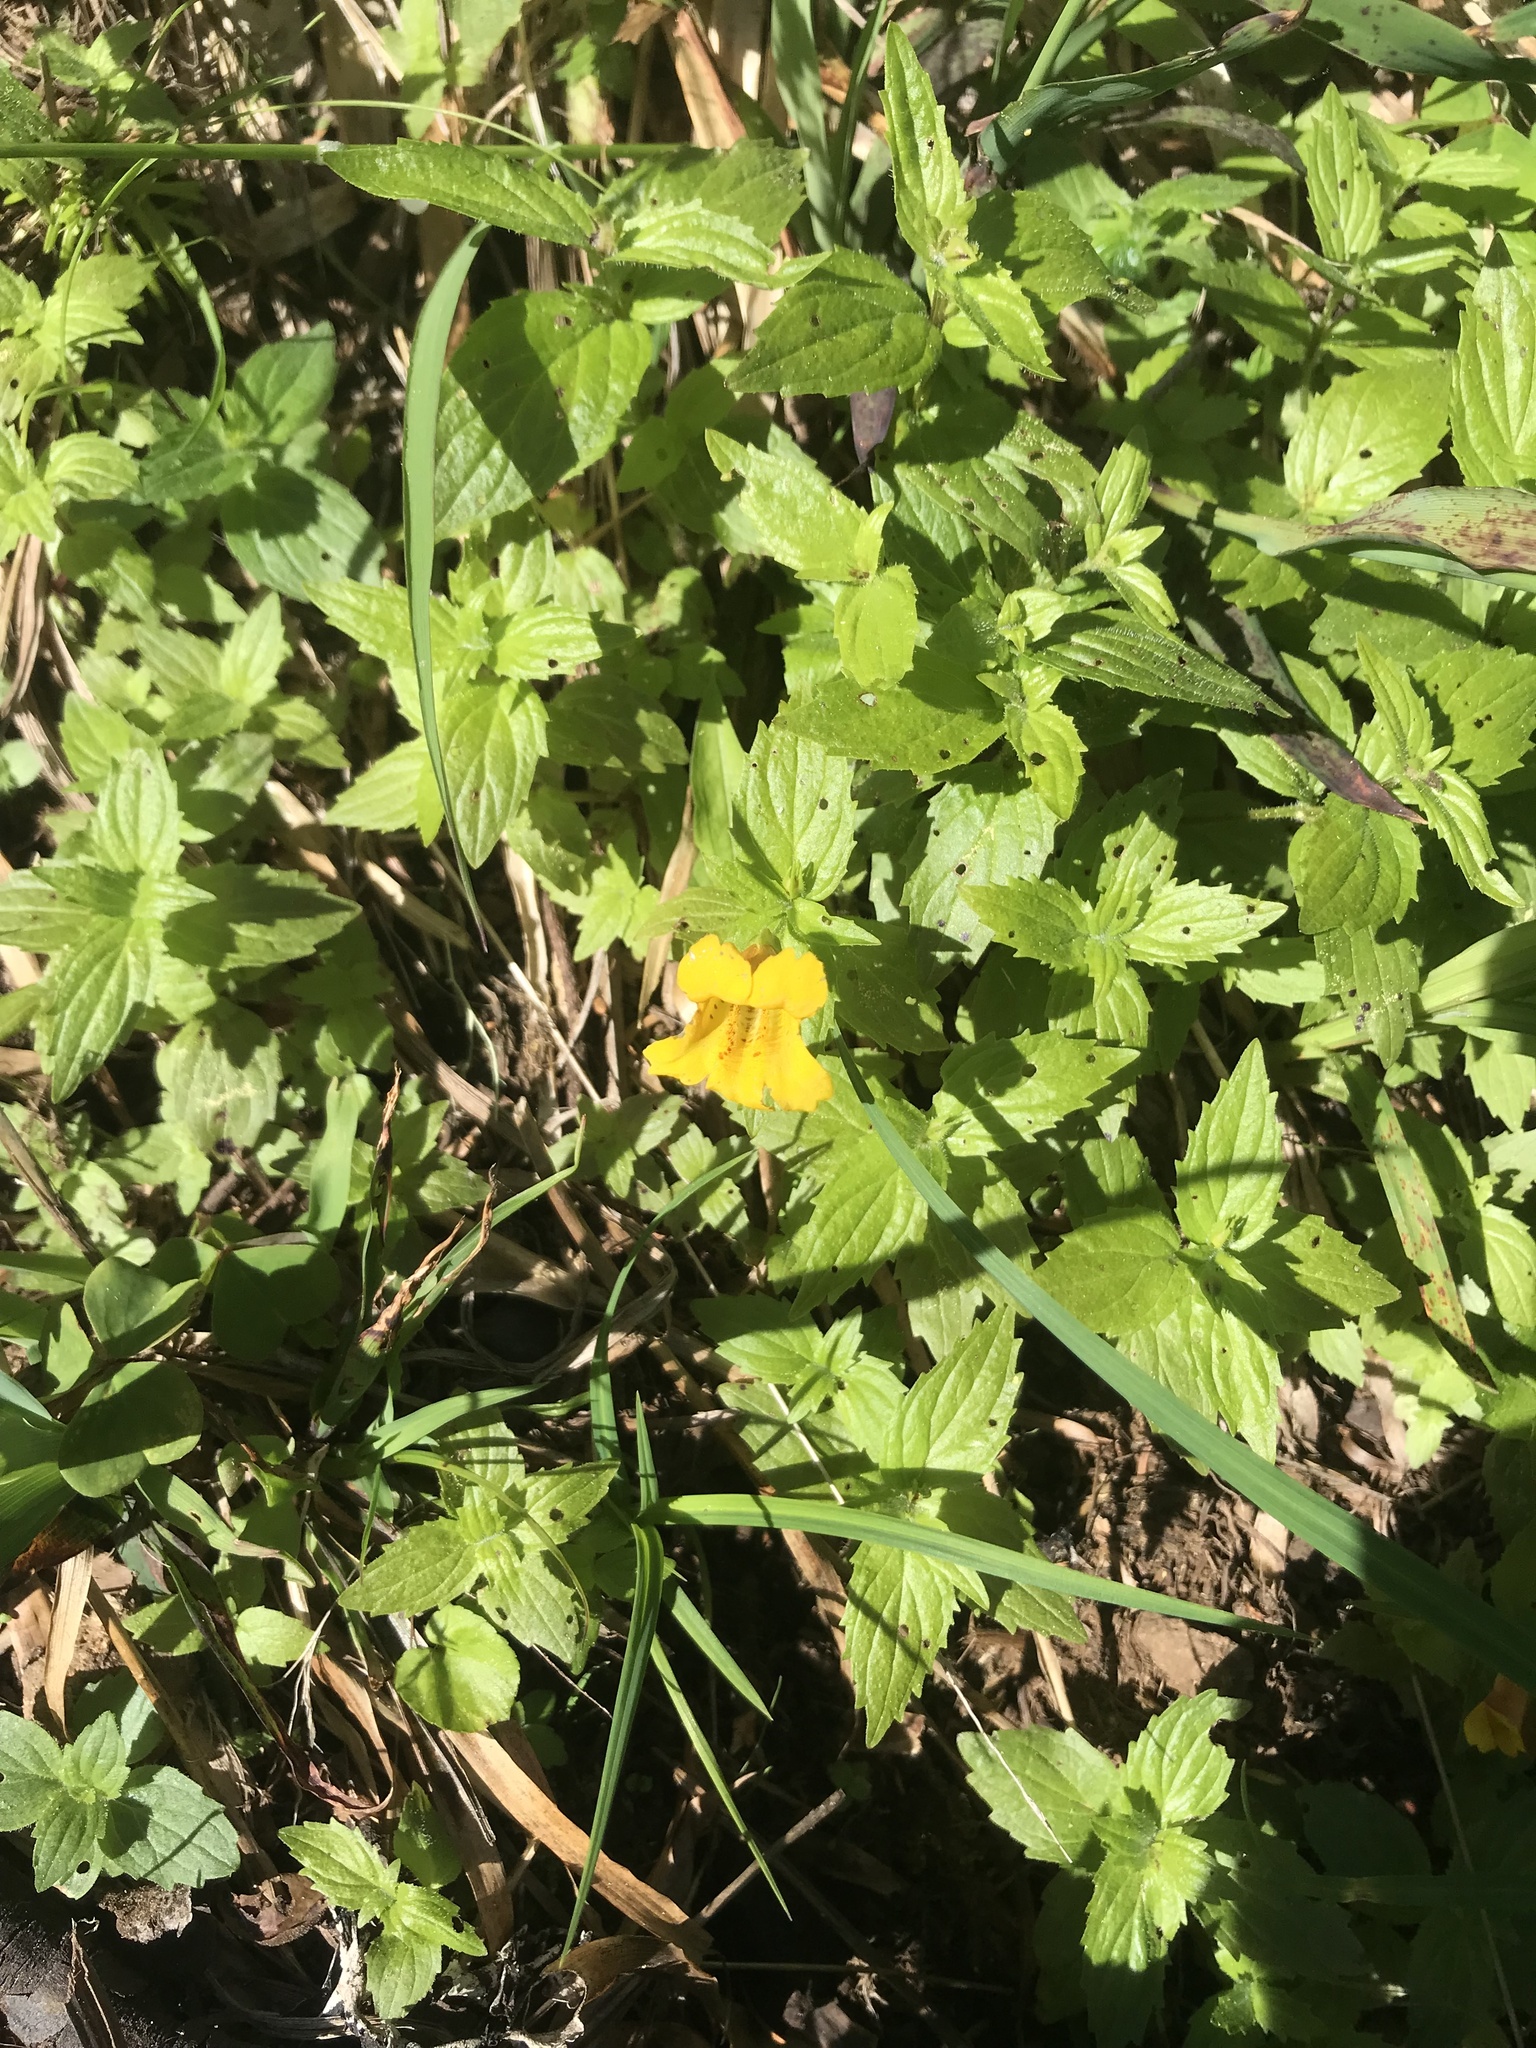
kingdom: Plantae
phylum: Tracheophyta
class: Magnoliopsida
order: Lamiales
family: Phrymaceae
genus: Erythranthe
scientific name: Erythranthe dentata
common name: Coastal monkeyflower
